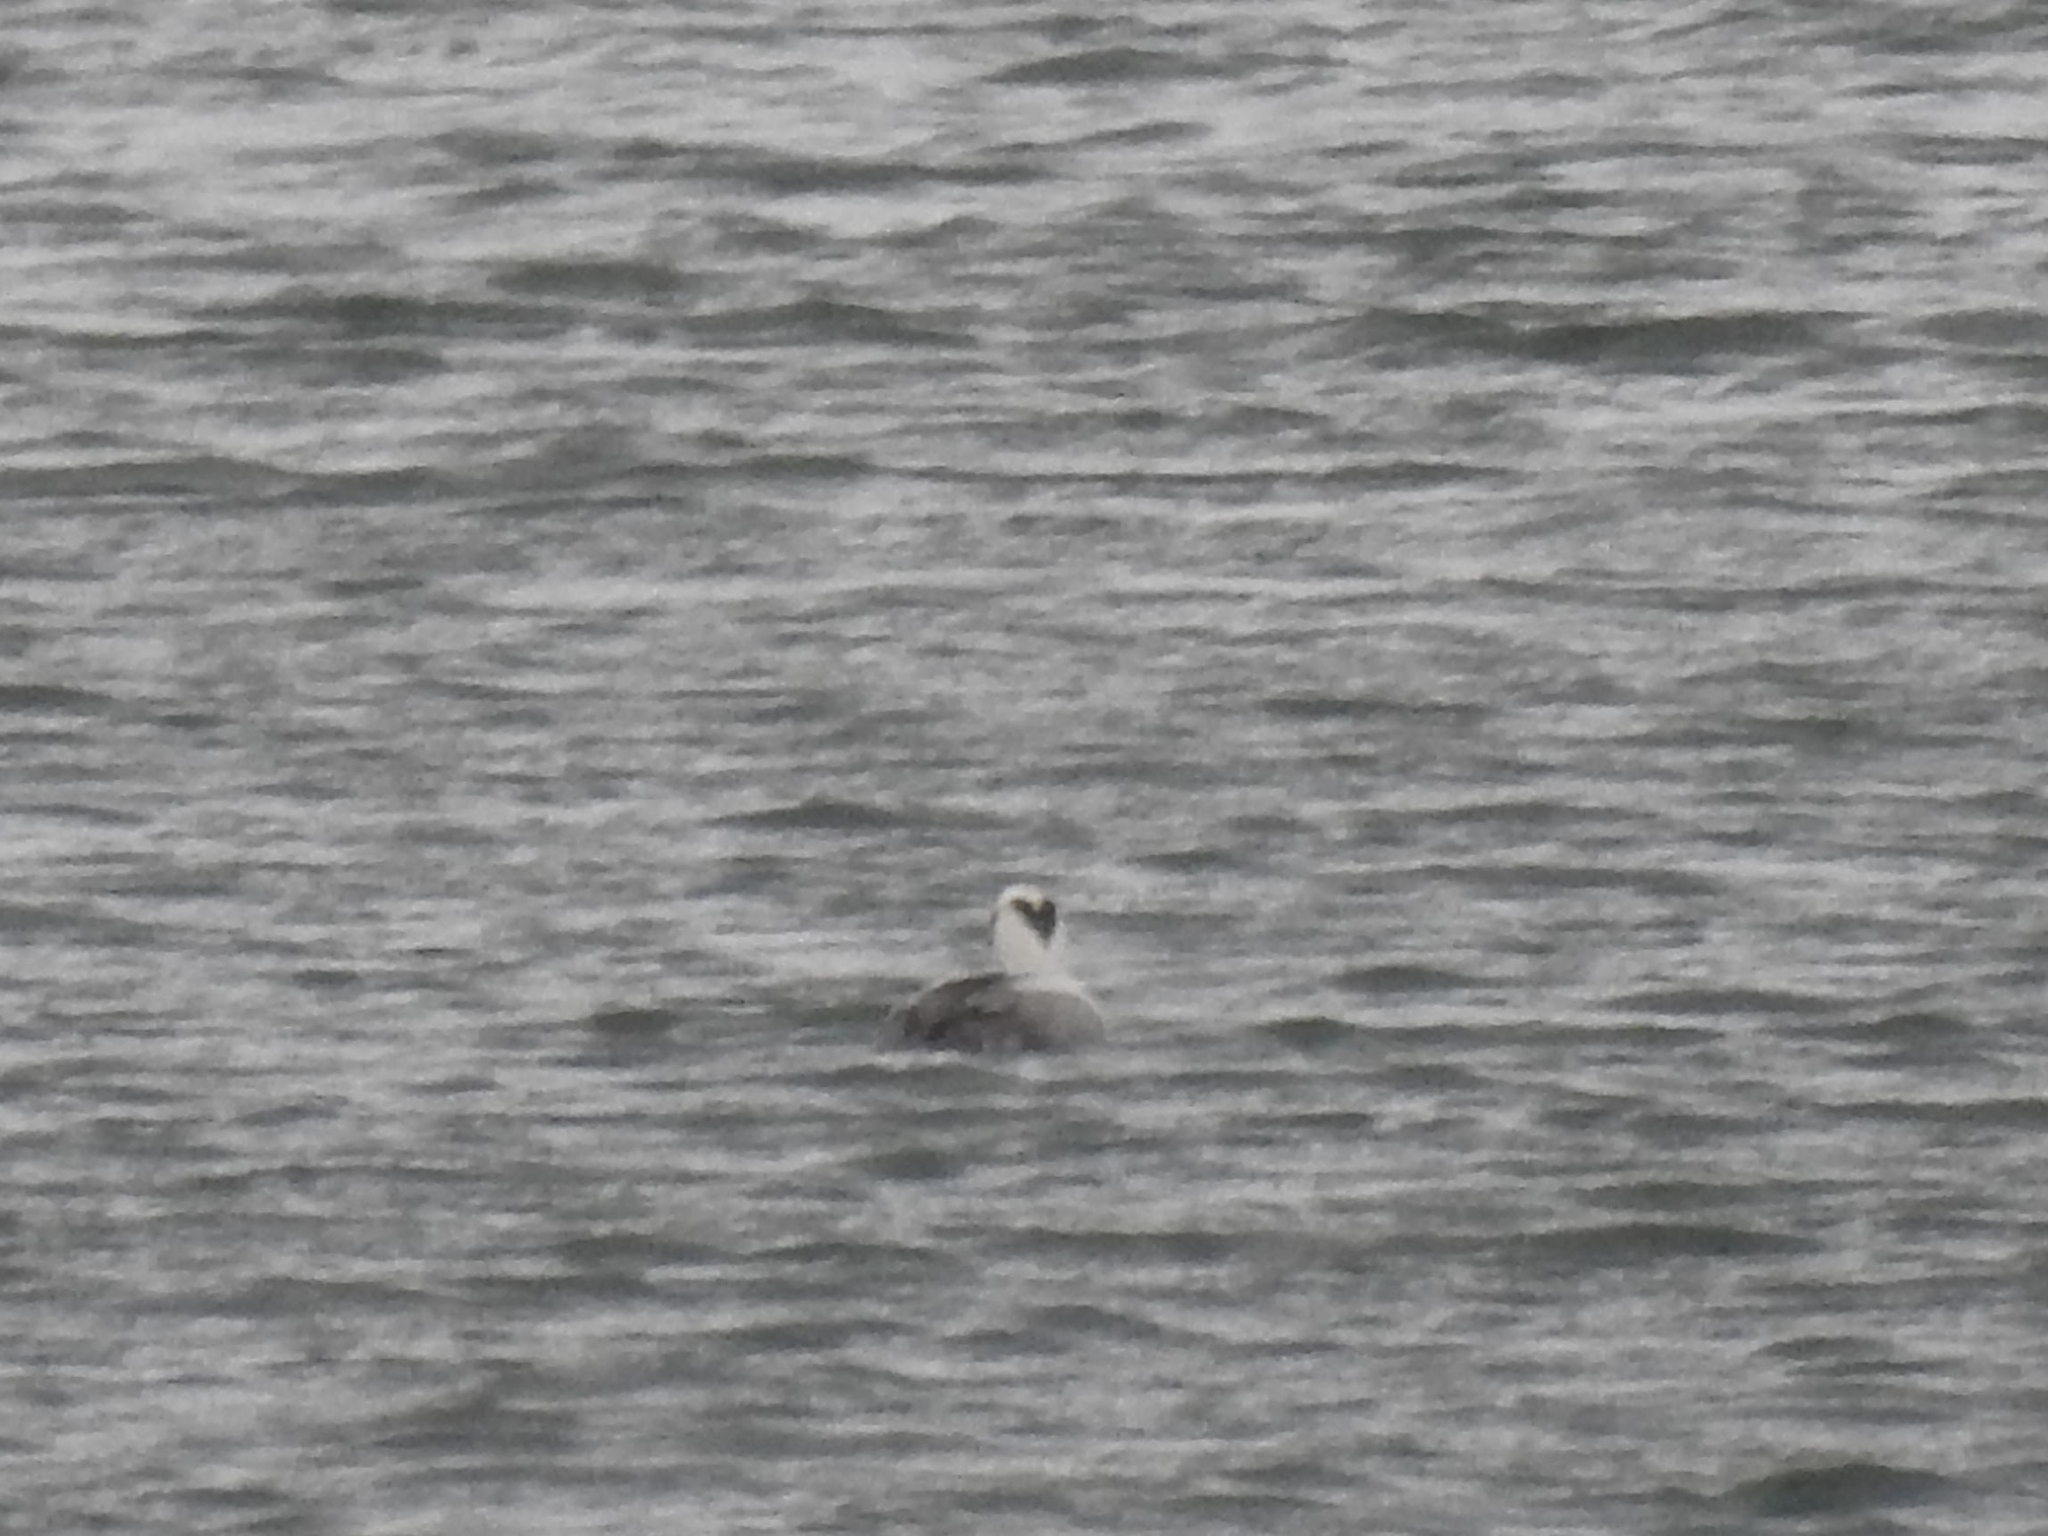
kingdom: Animalia
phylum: Chordata
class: Aves
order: Anseriformes
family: Anatidae
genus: Mergellus
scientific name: Mergellus albellus
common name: Smew
